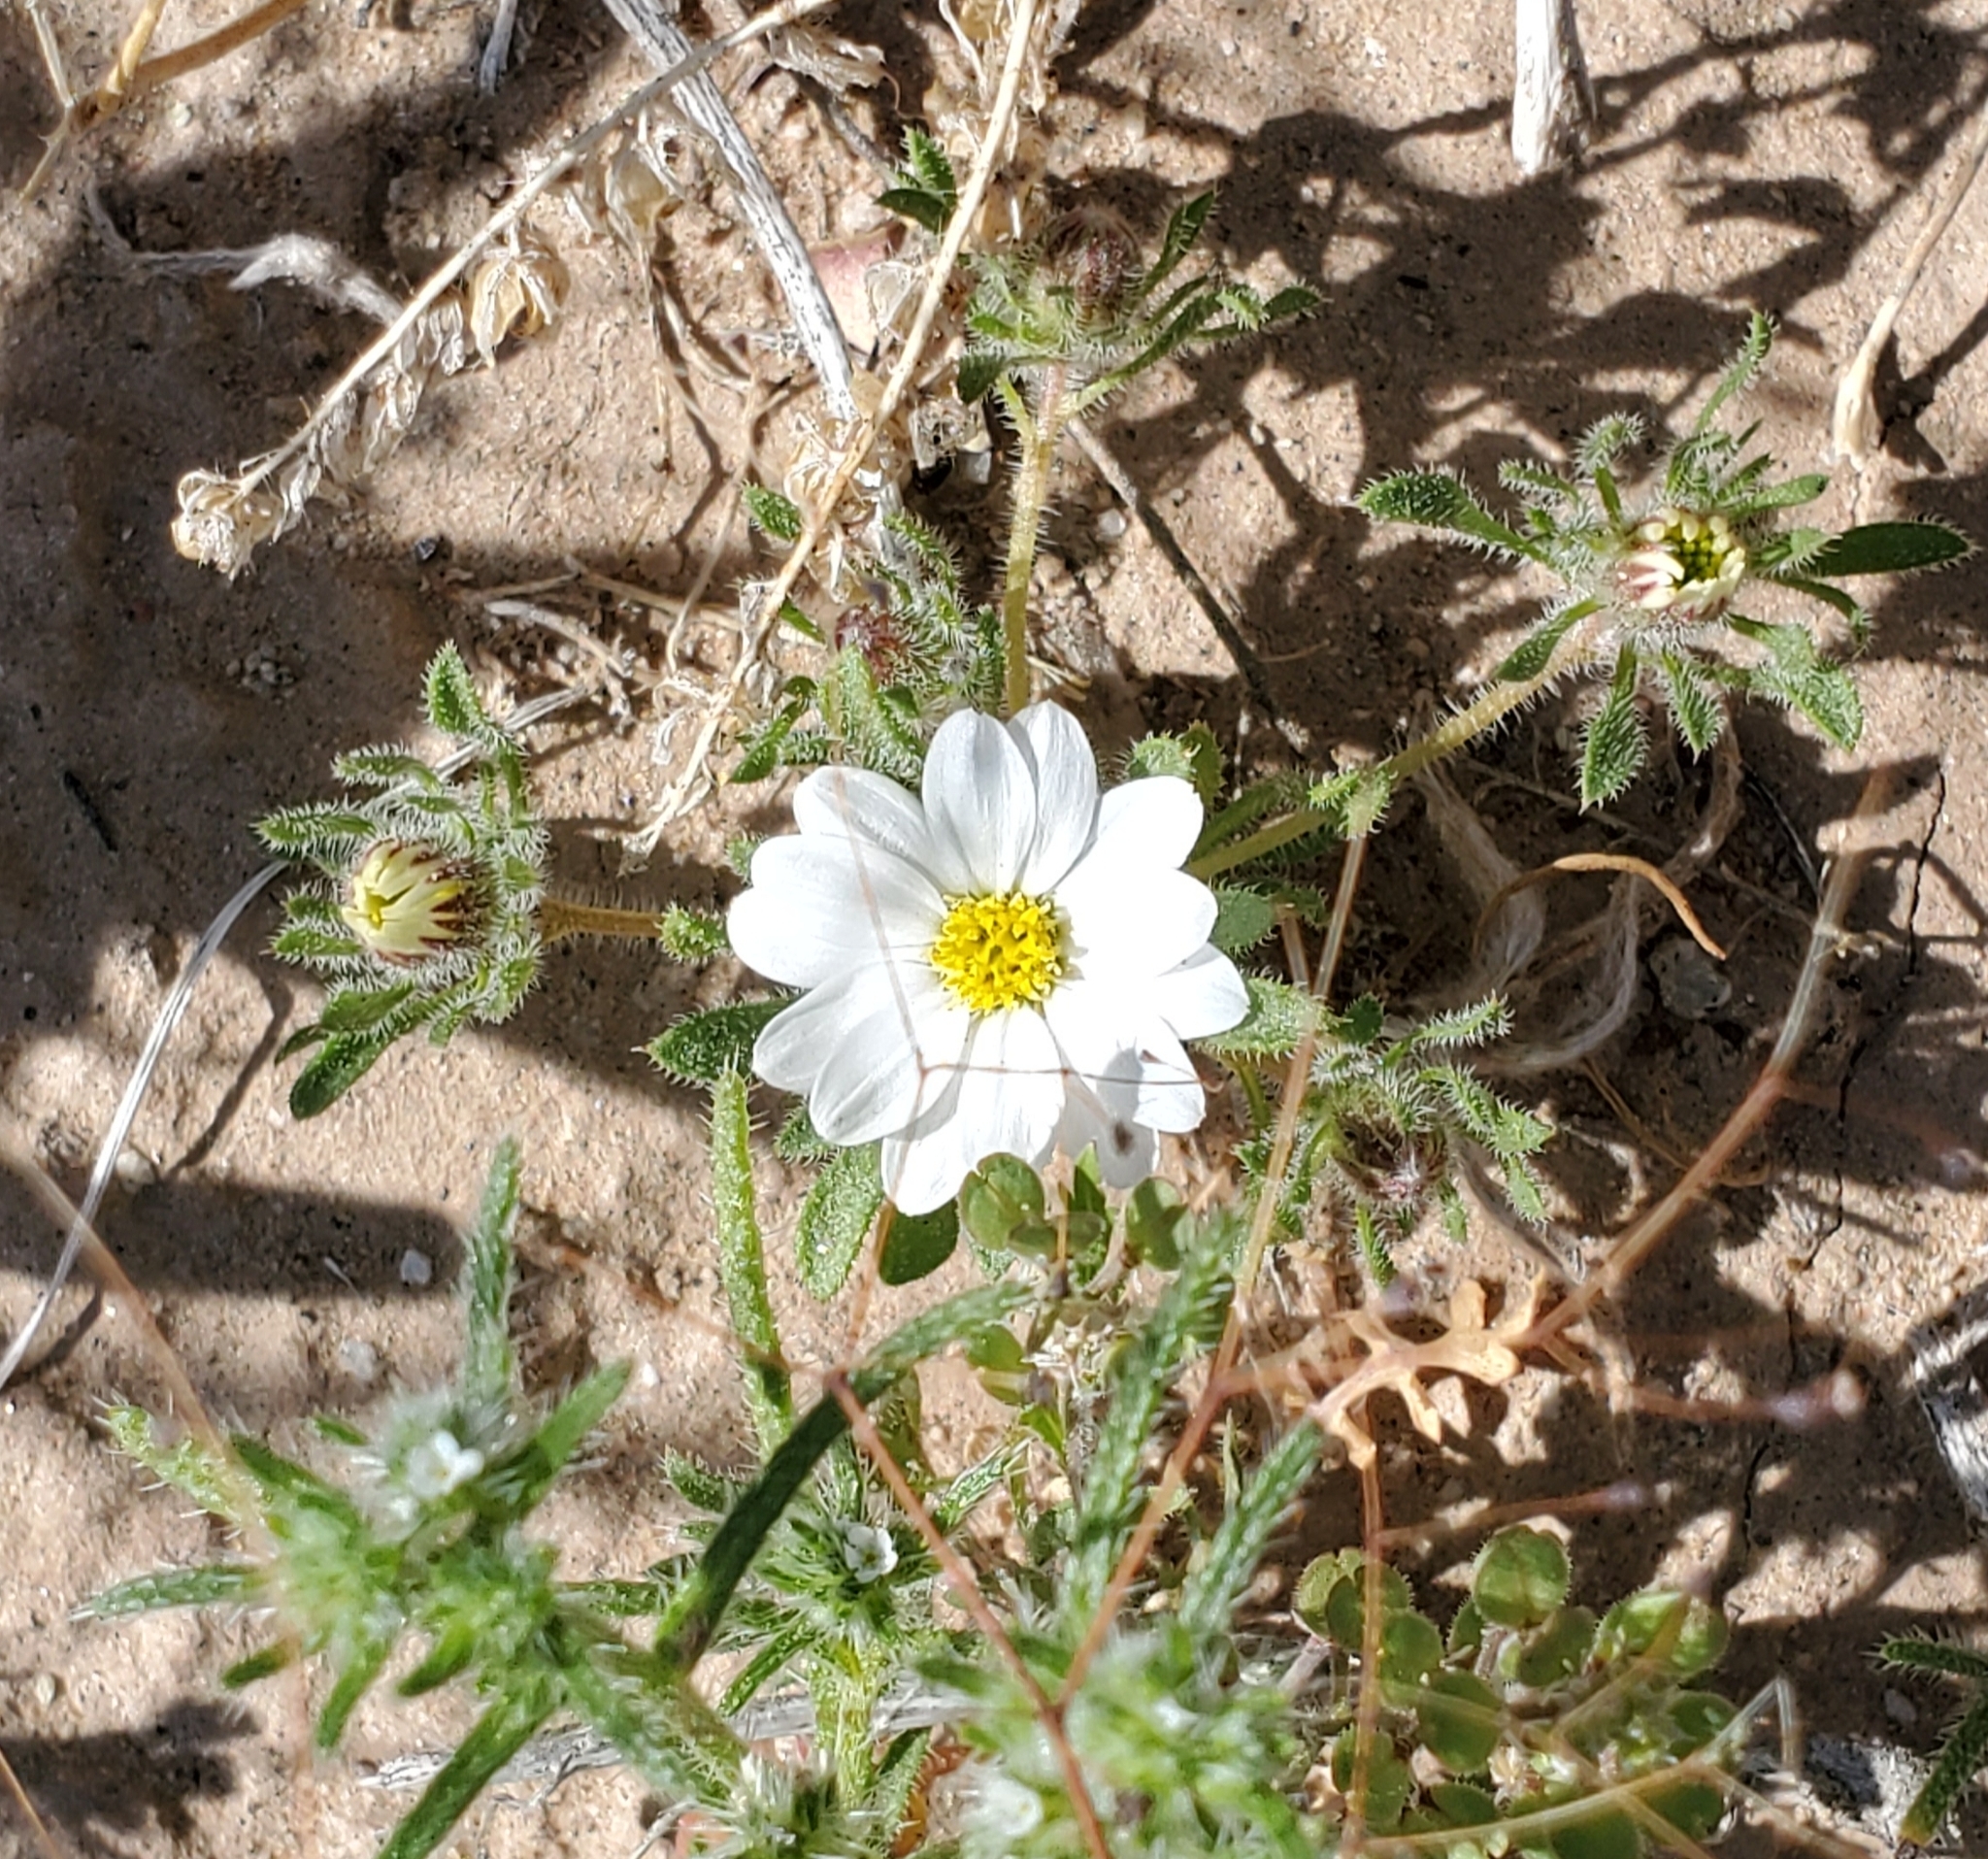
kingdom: Plantae
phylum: Tracheophyta
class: Magnoliopsida
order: Asterales
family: Asteraceae
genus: Monoptilon
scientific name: Monoptilon bellioides
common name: Bristly desertstar
